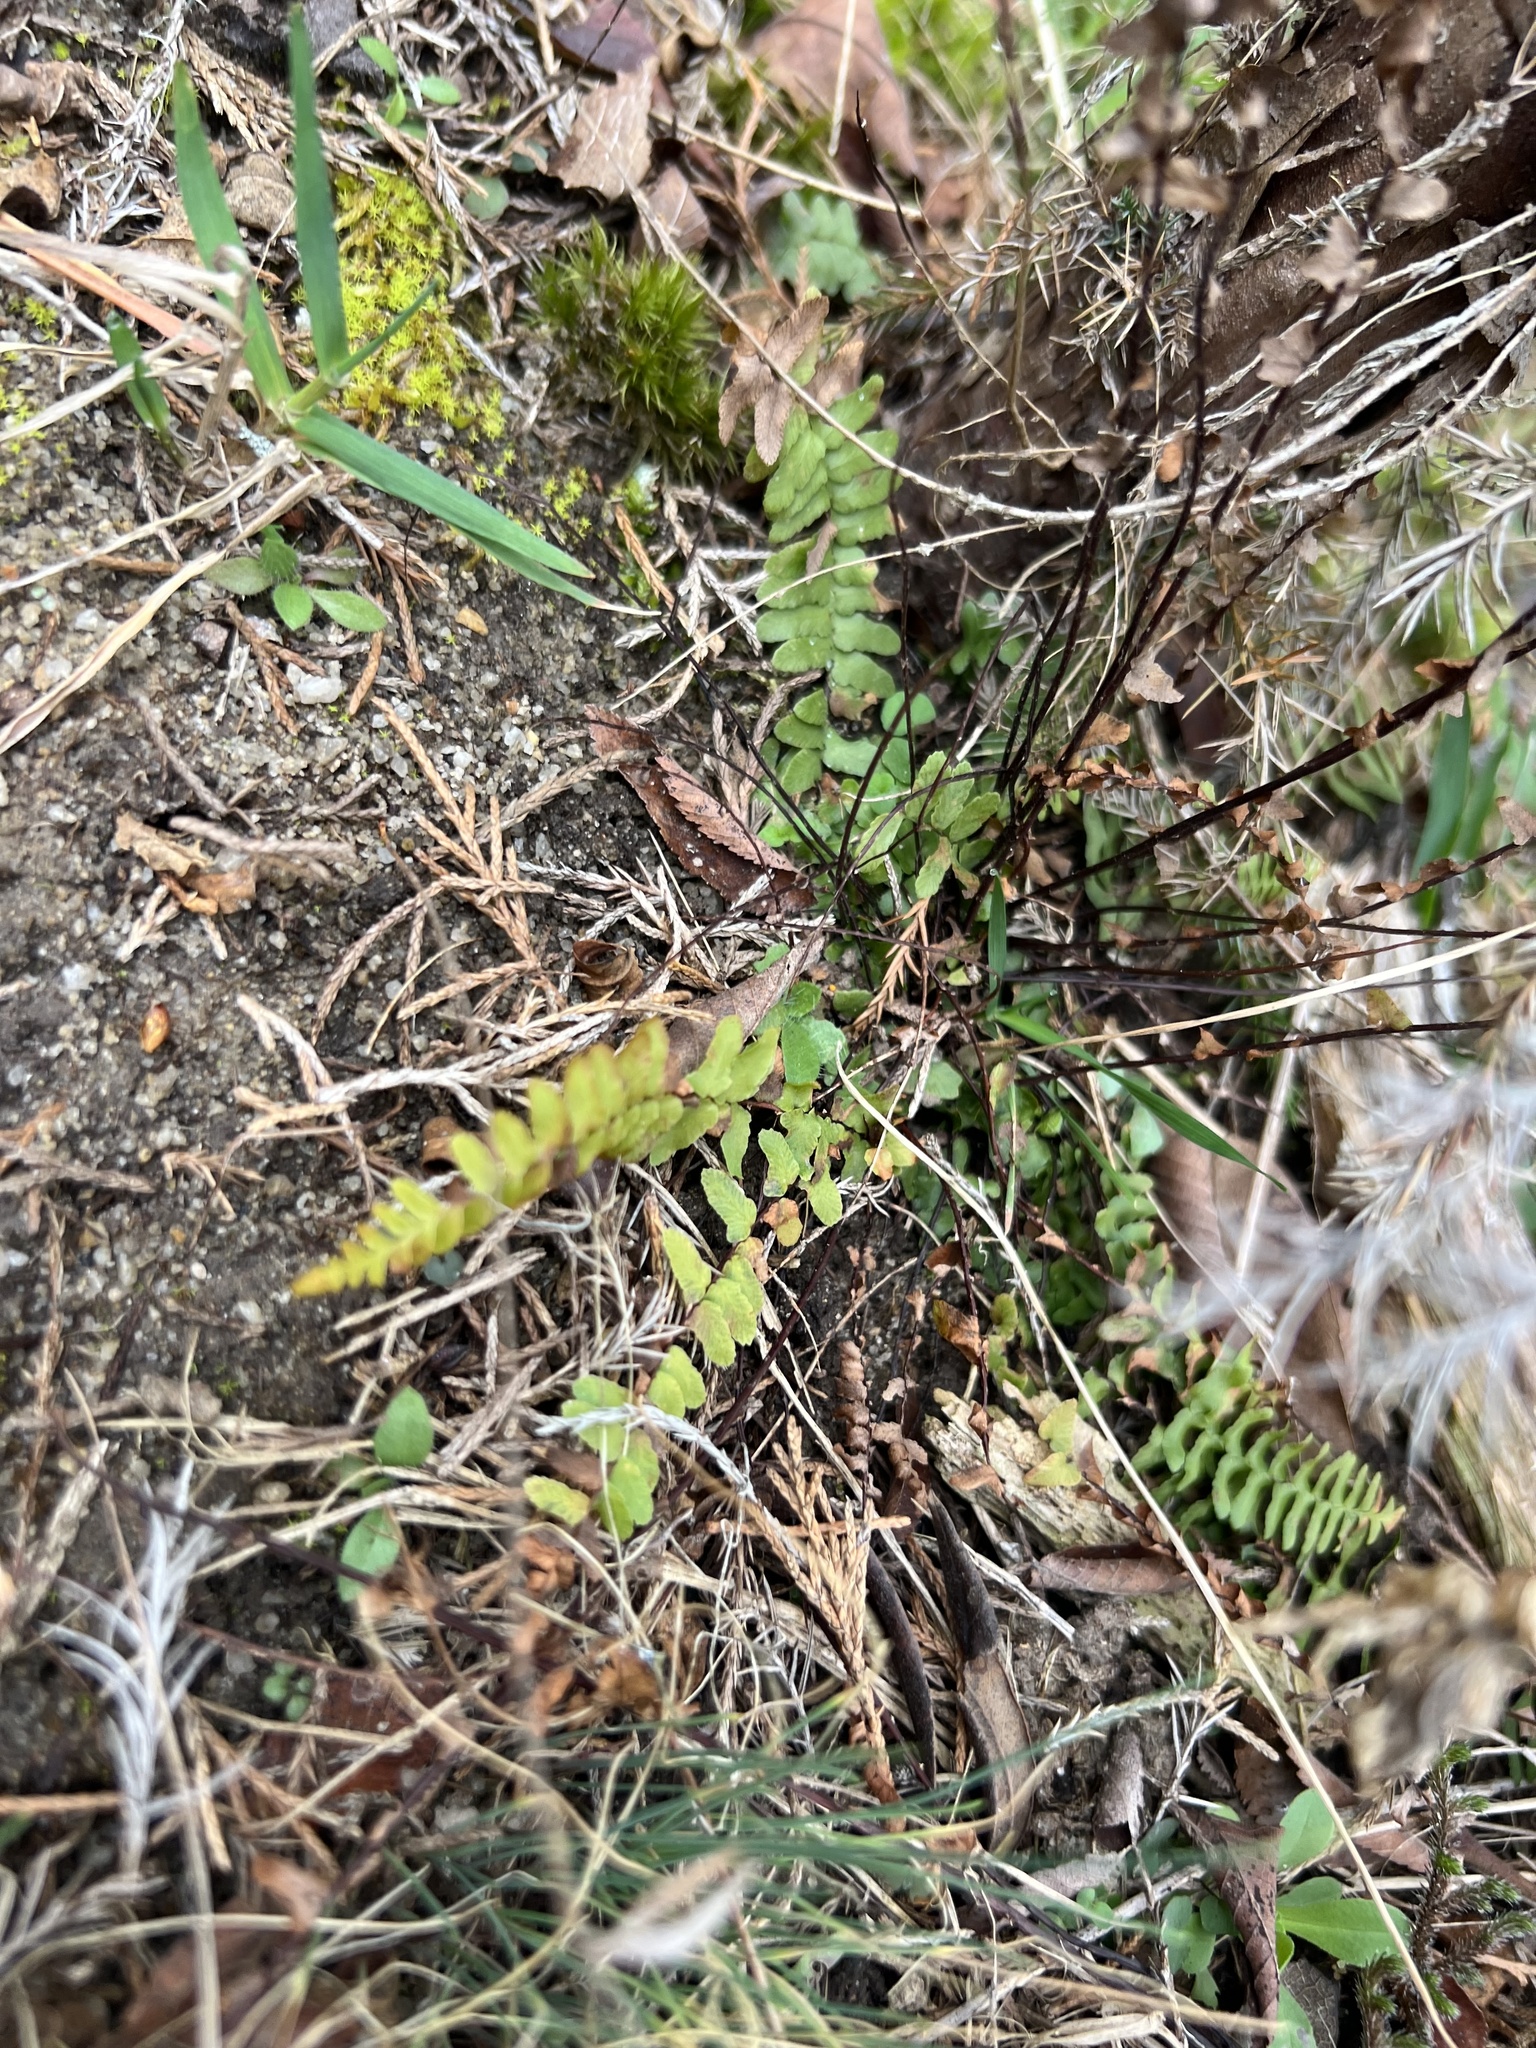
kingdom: Plantae
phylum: Tracheophyta
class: Polypodiopsida
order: Polypodiales
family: Aspleniaceae
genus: Asplenium
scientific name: Asplenium platyneuron
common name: Ebony spleenwort
